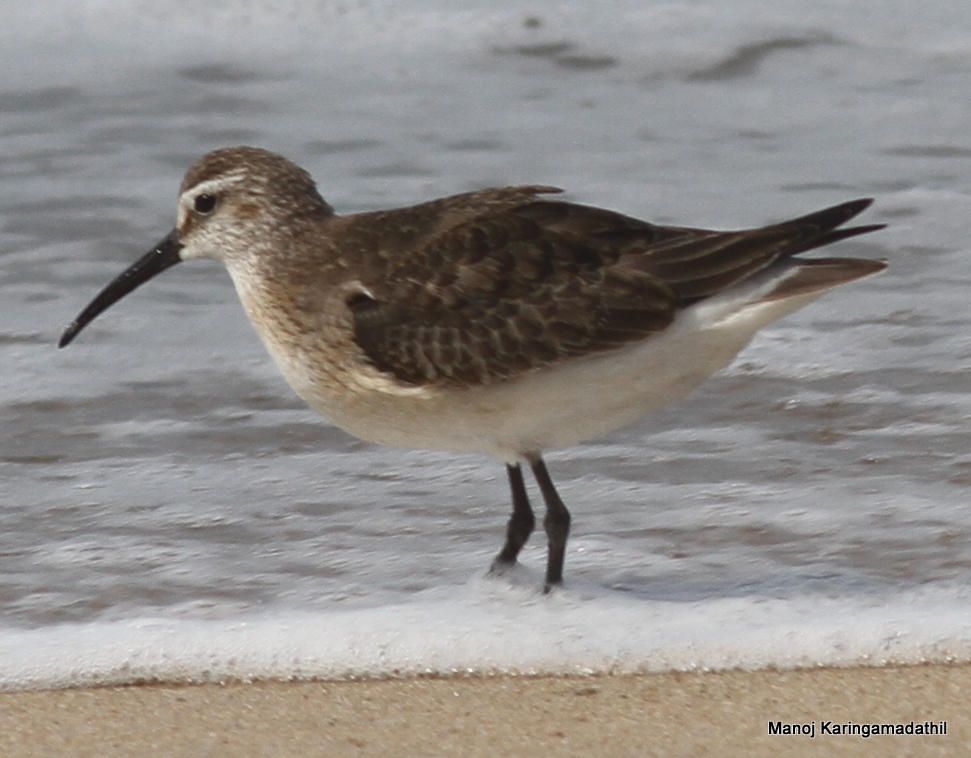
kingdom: Animalia
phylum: Chordata
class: Aves
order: Charadriiformes
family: Scolopacidae
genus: Calidris
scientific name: Calidris ferruginea
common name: Curlew sandpiper
